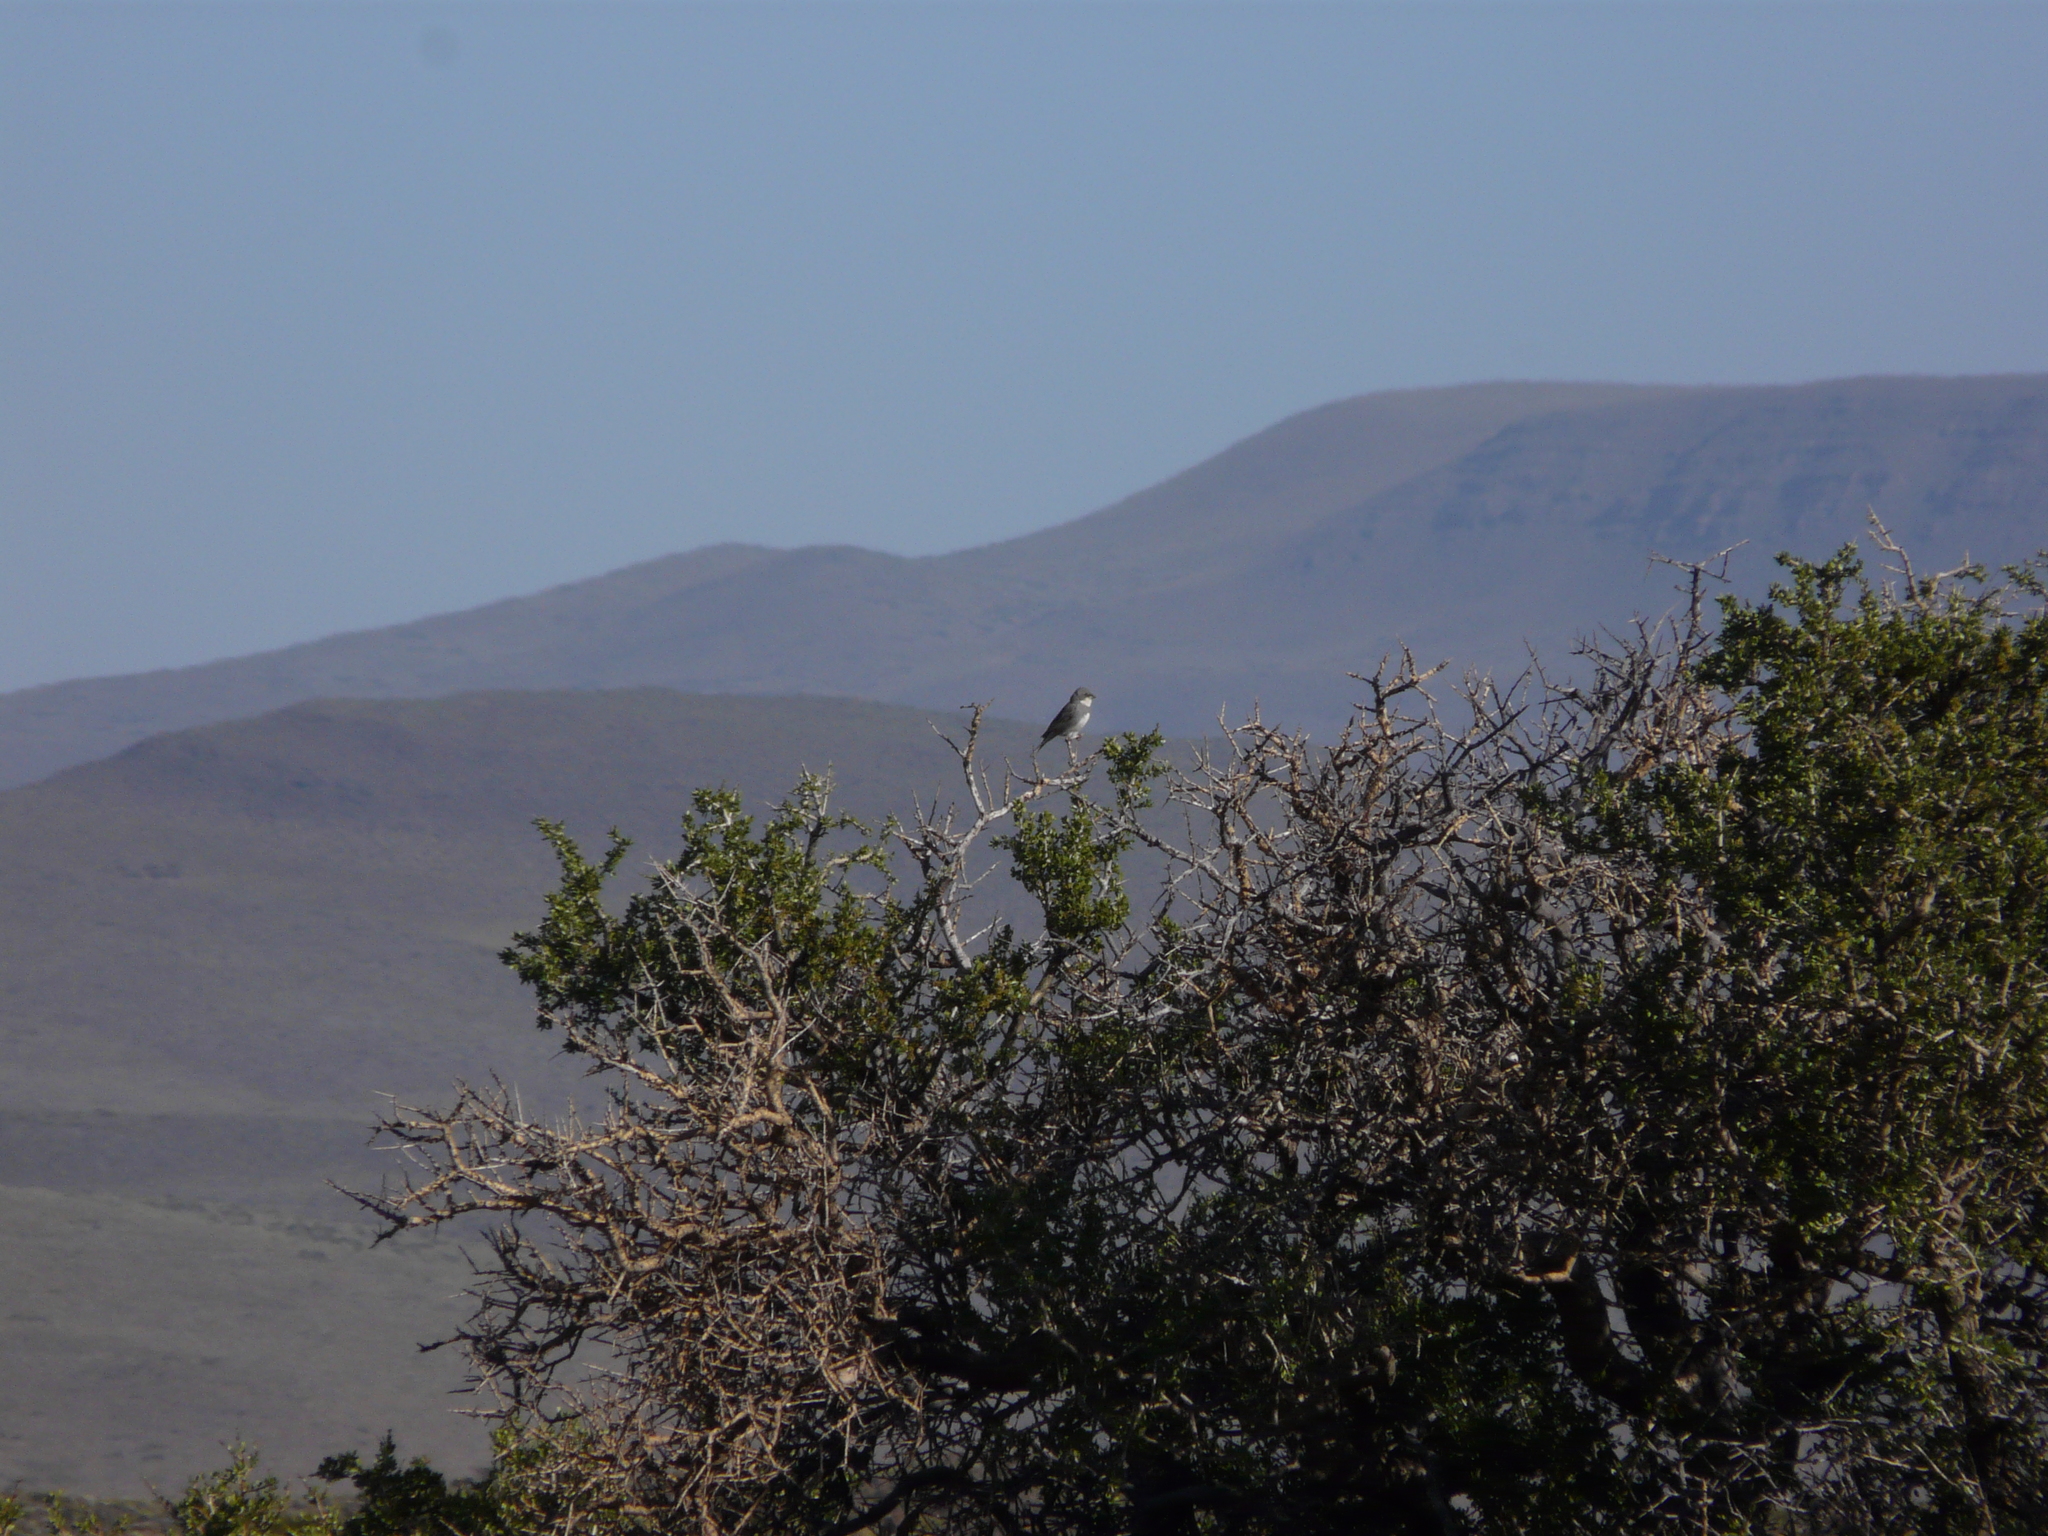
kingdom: Animalia
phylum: Chordata
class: Aves
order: Passeriformes
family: Thraupidae
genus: Diuca
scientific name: Diuca diuca
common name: Common diuca finch
